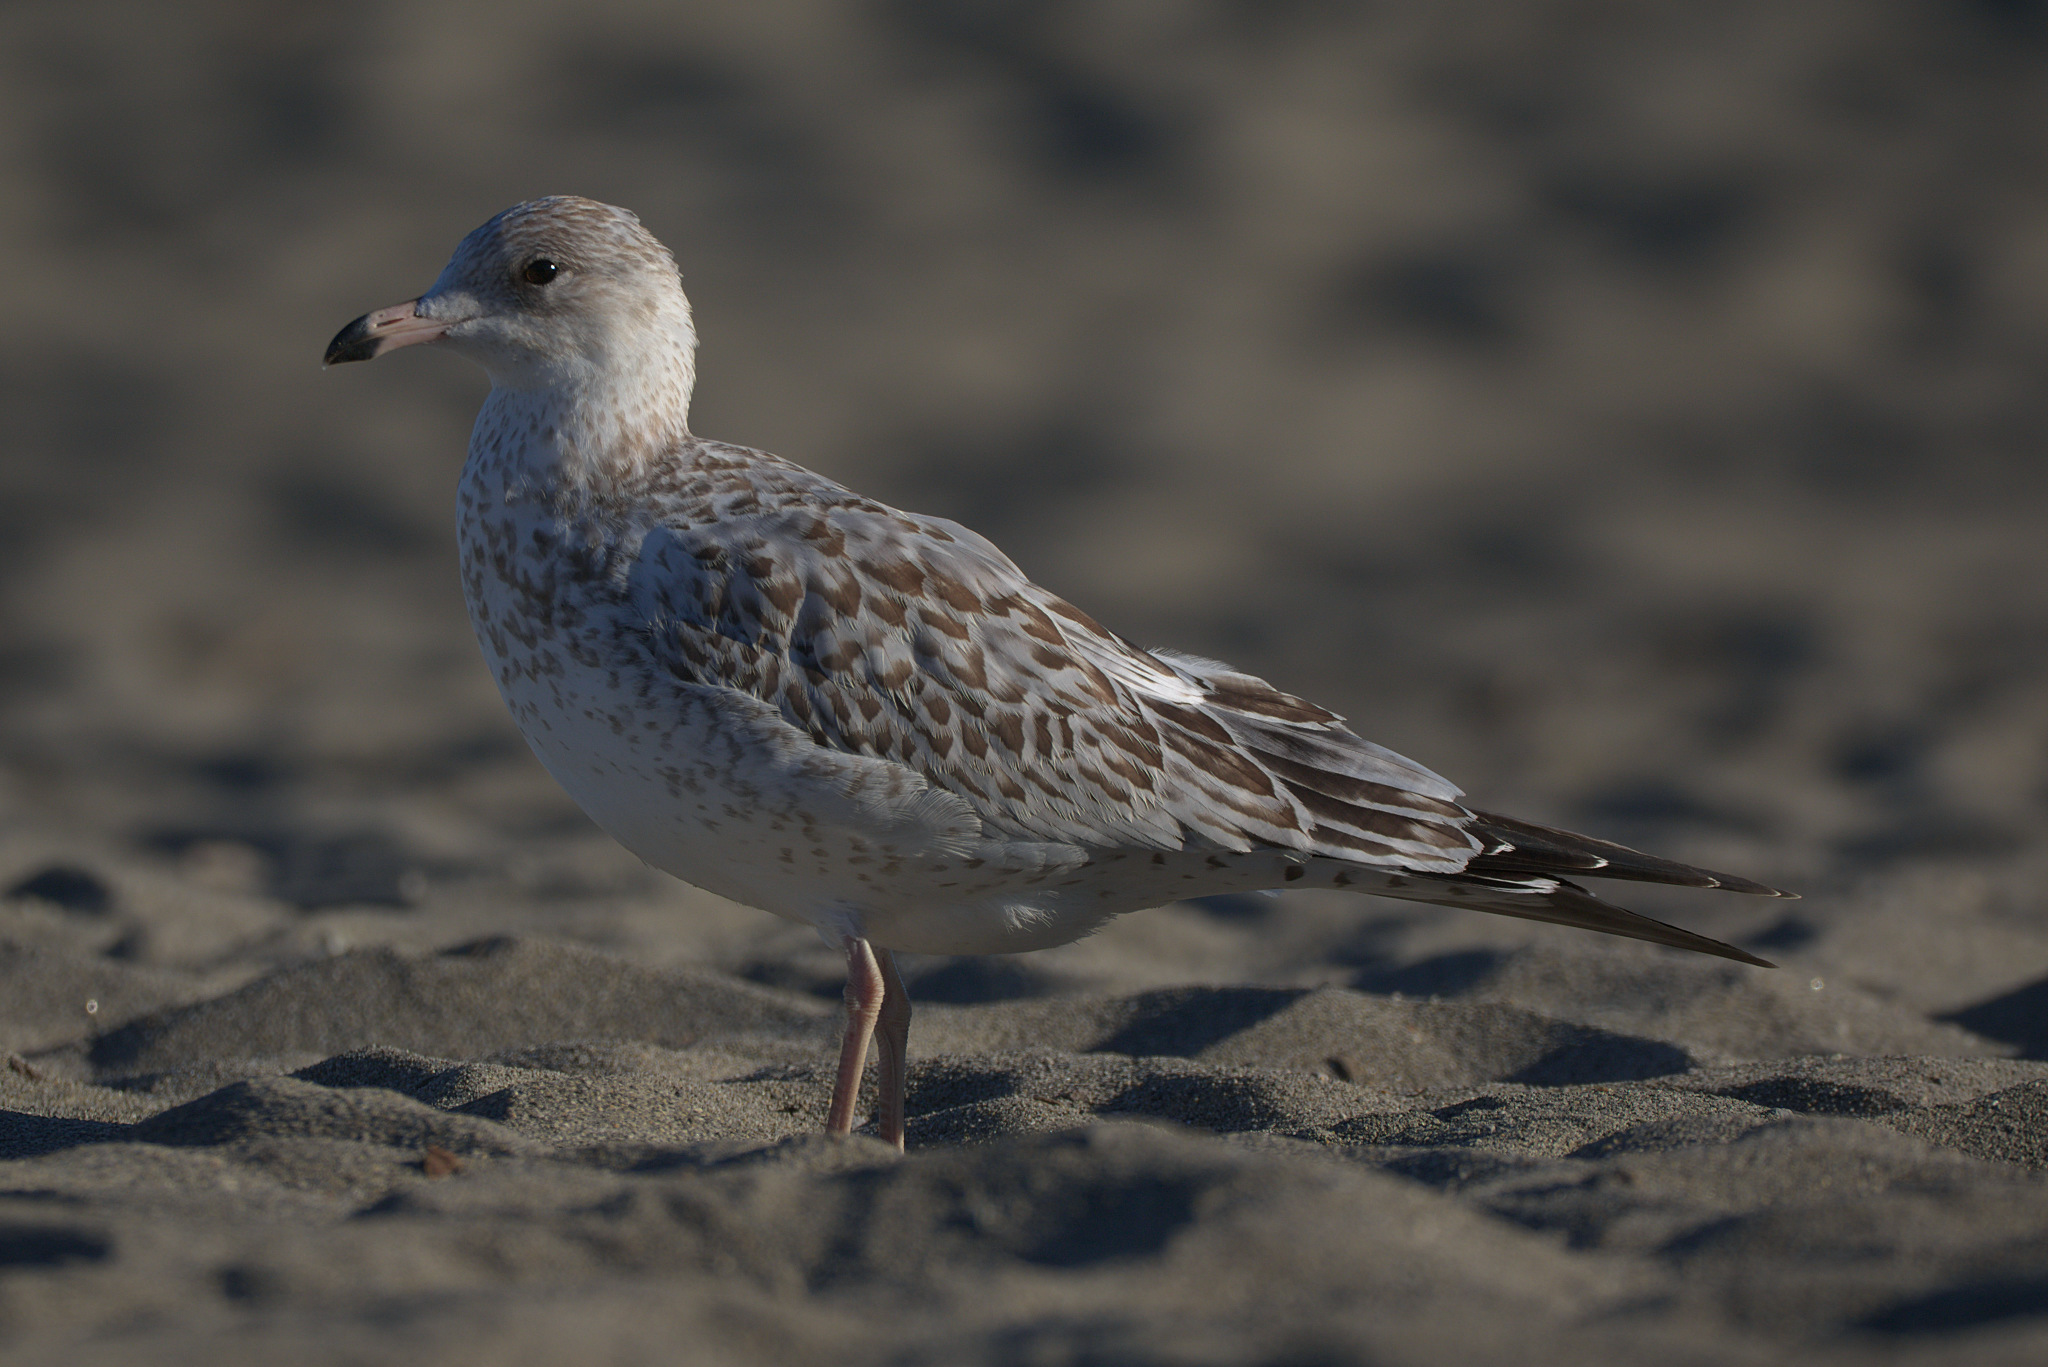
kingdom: Animalia
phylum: Chordata
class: Aves
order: Charadriiformes
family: Laridae
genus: Larus
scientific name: Larus delawarensis
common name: Ring-billed gull
